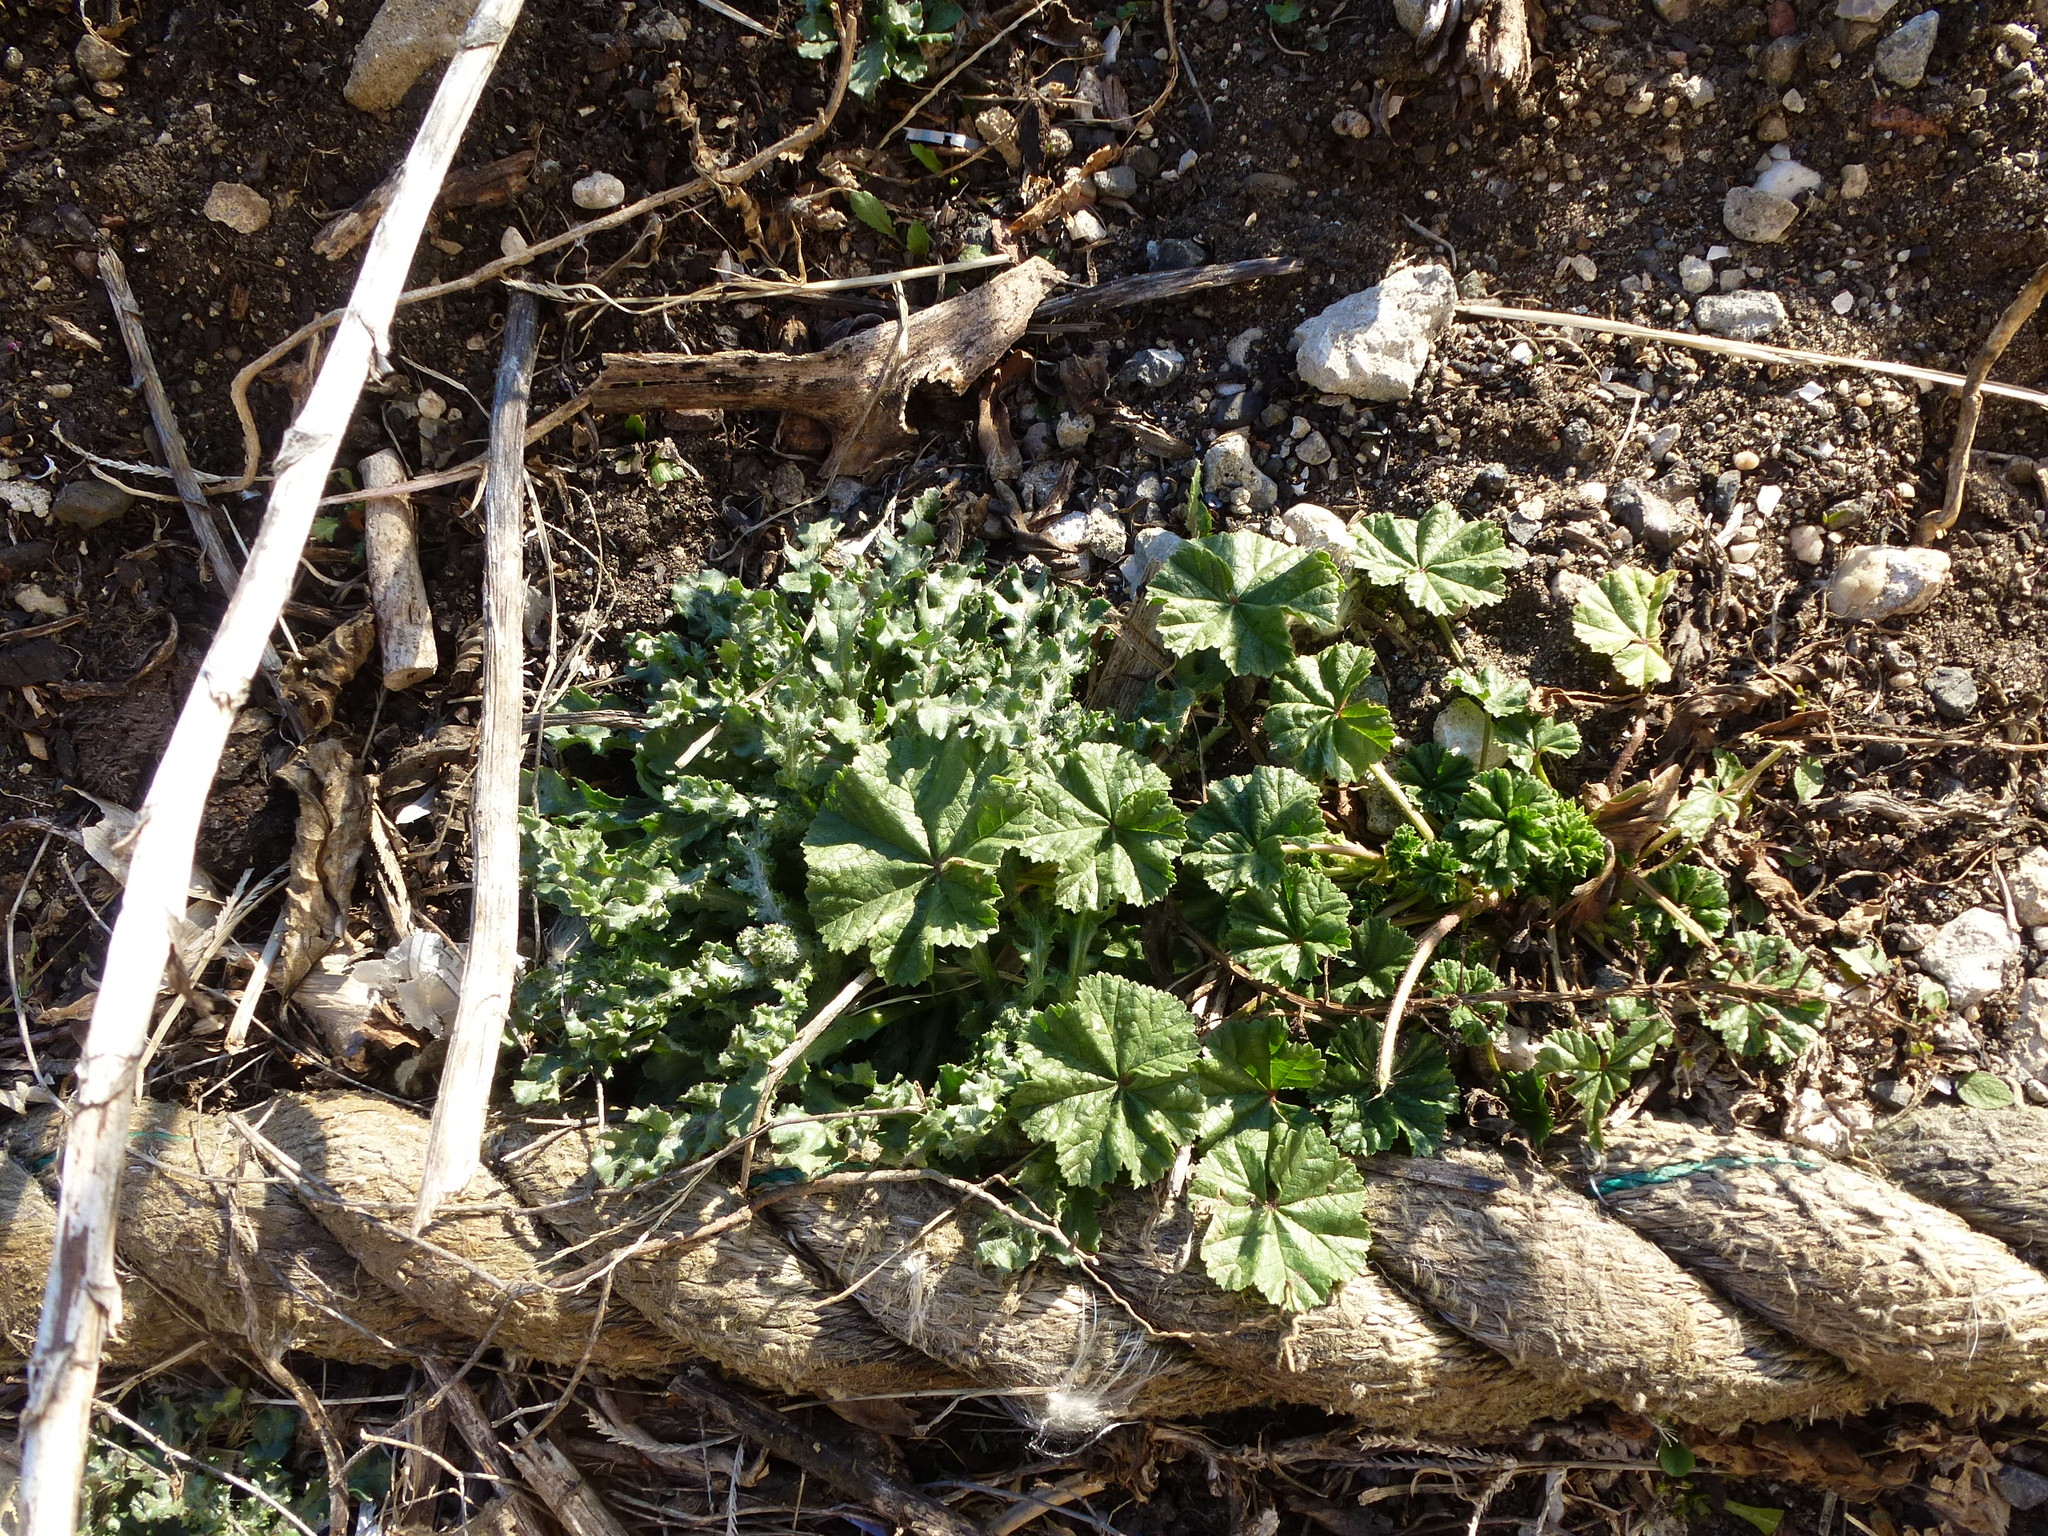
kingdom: Plantae
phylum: Tracheophyta
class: Magnoliopsida
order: Malvales
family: Malvaceae
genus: Malva
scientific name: Malva neglecta
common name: Common mallow
